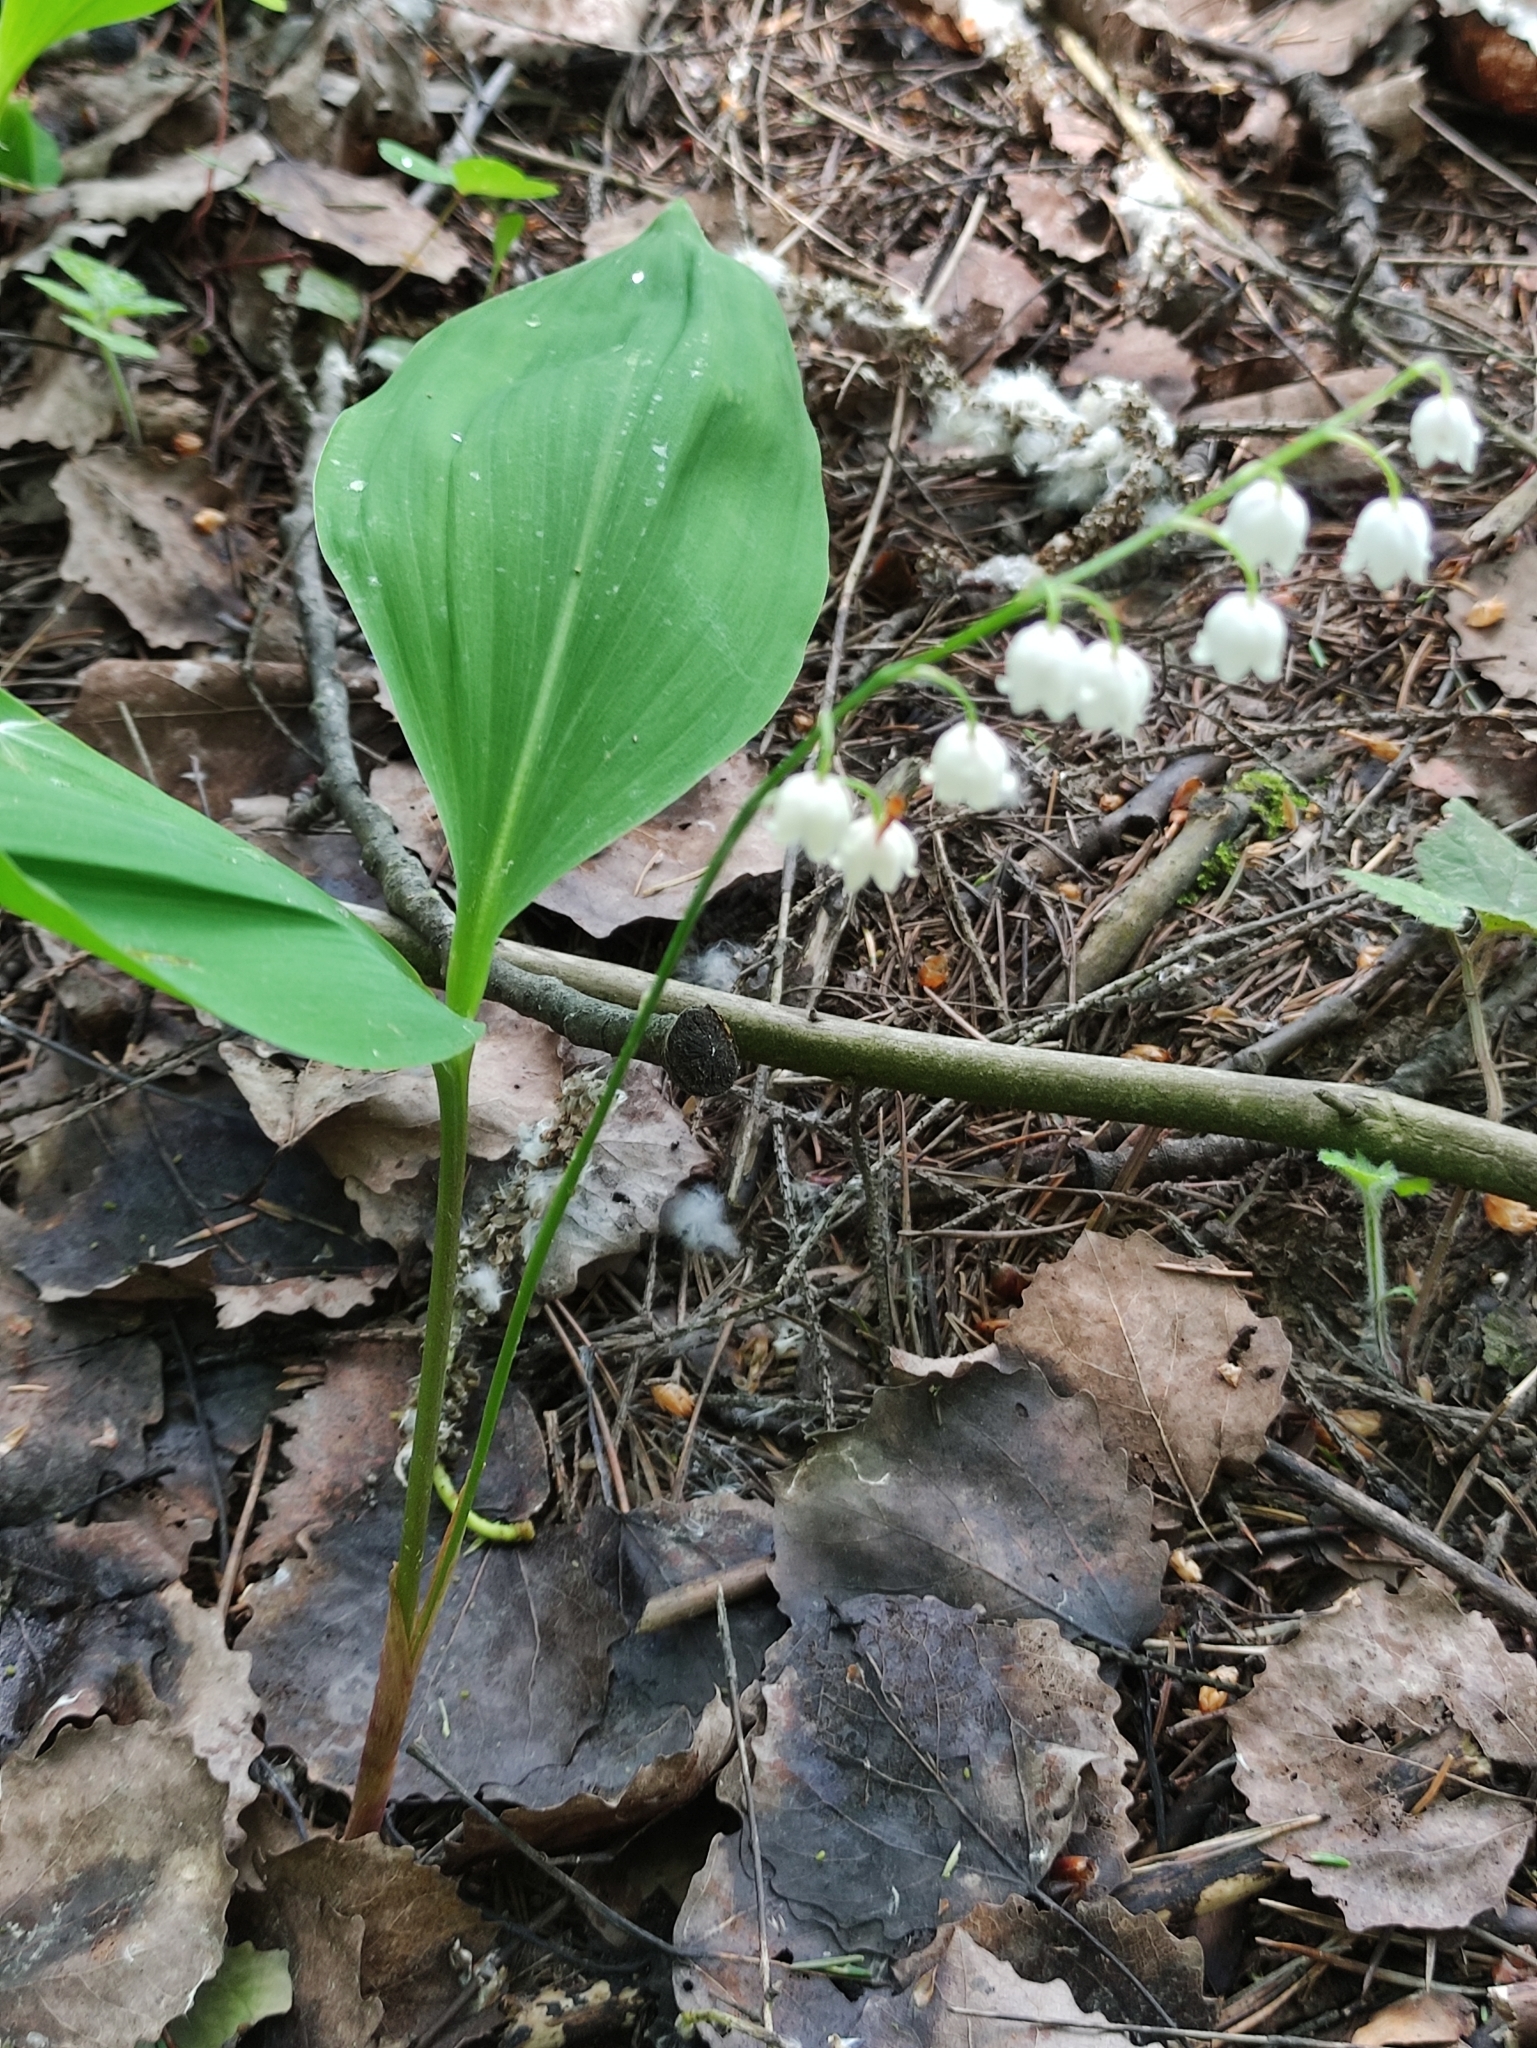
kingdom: Plantae
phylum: Tracheophyta
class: Liliopsida
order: Asparagales
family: Asparagaceae
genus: Convallaria
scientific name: Convallaria majalis
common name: Lily-of-the-valley
